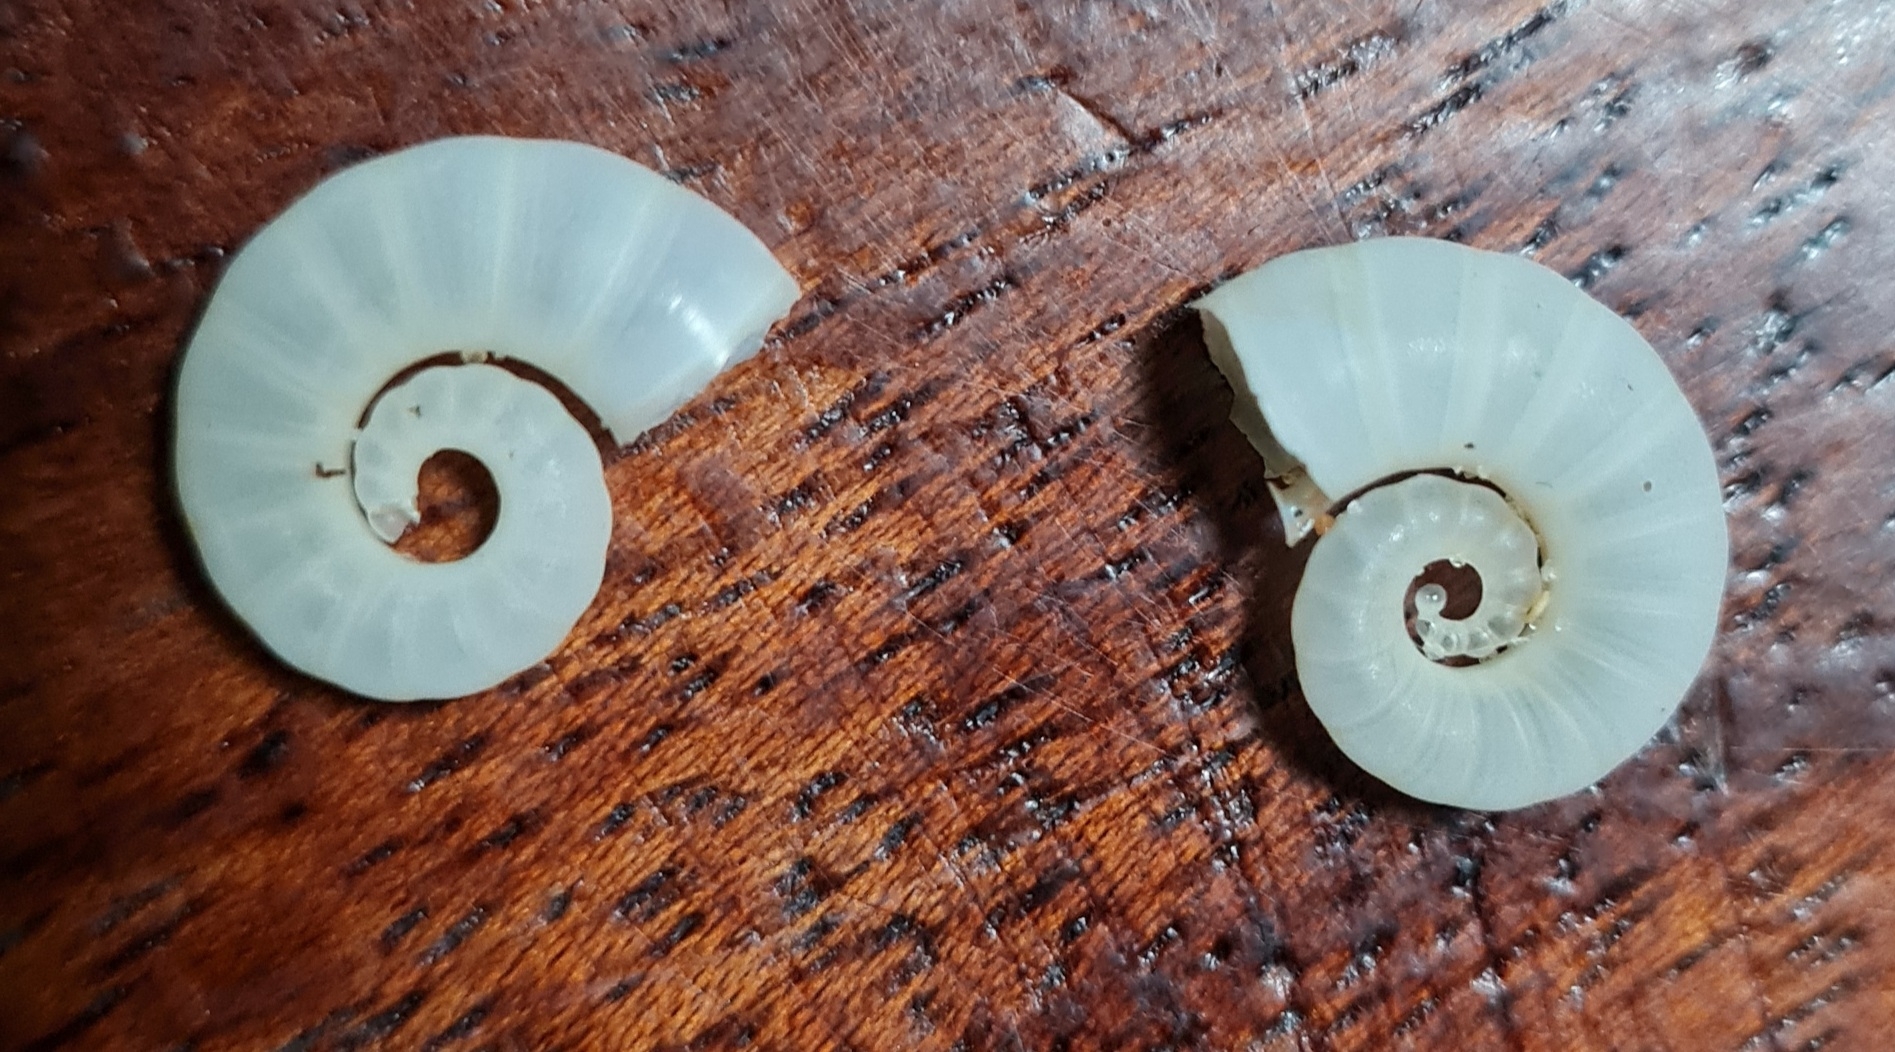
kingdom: Animalia
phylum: Mollusca
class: Cephalopoda
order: Spirulida
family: Spirulidae
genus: Spirula
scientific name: Spirula spirula
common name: Ram's horn squid
